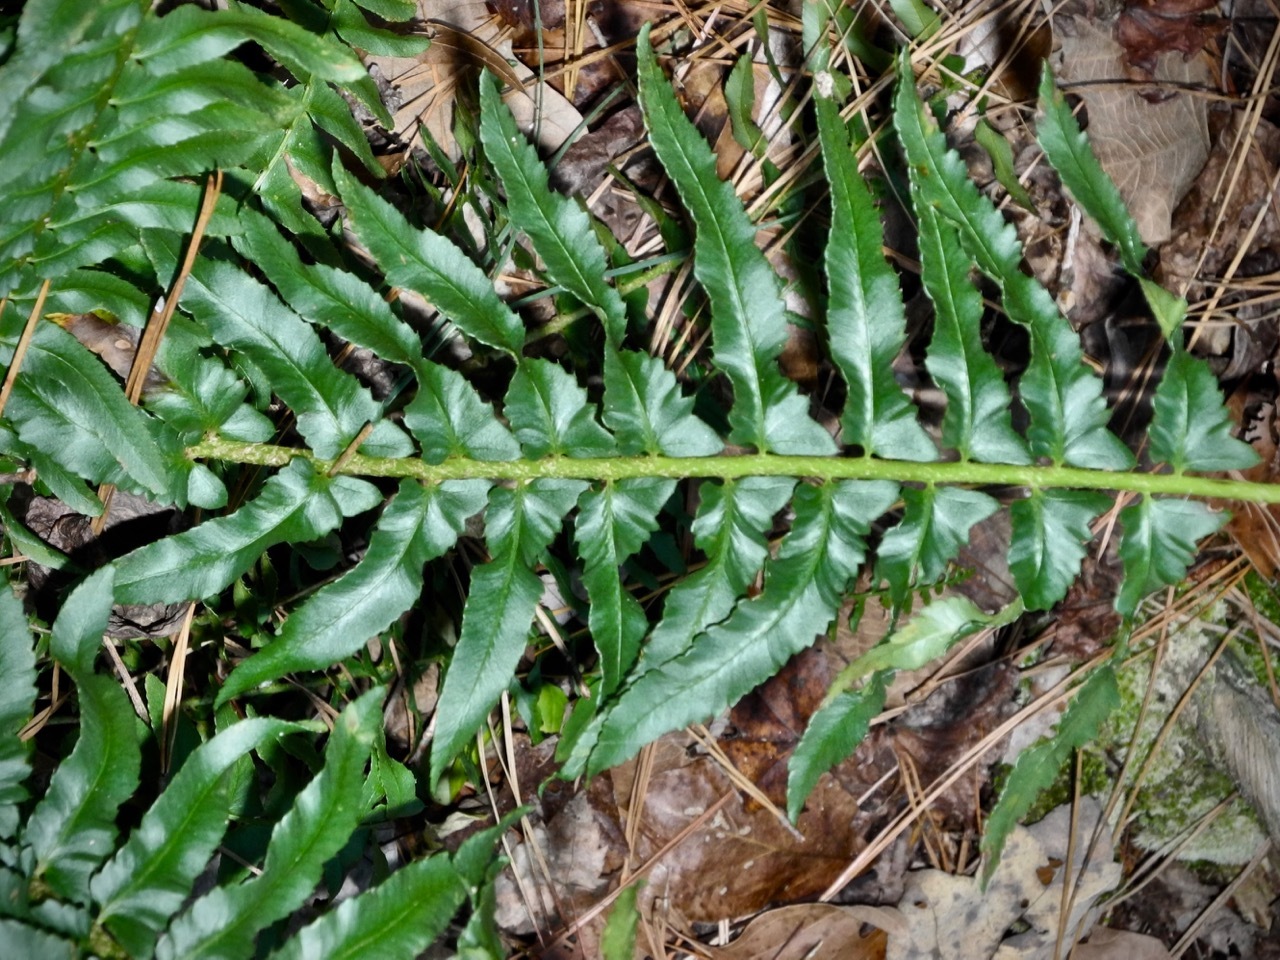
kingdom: Plantae
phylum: Tracheophyta
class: Polypodiopsida
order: Polypodiales
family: Dryopteridaceae
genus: Polystichum
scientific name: Polystichum acrostichoides
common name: Christmas fern
